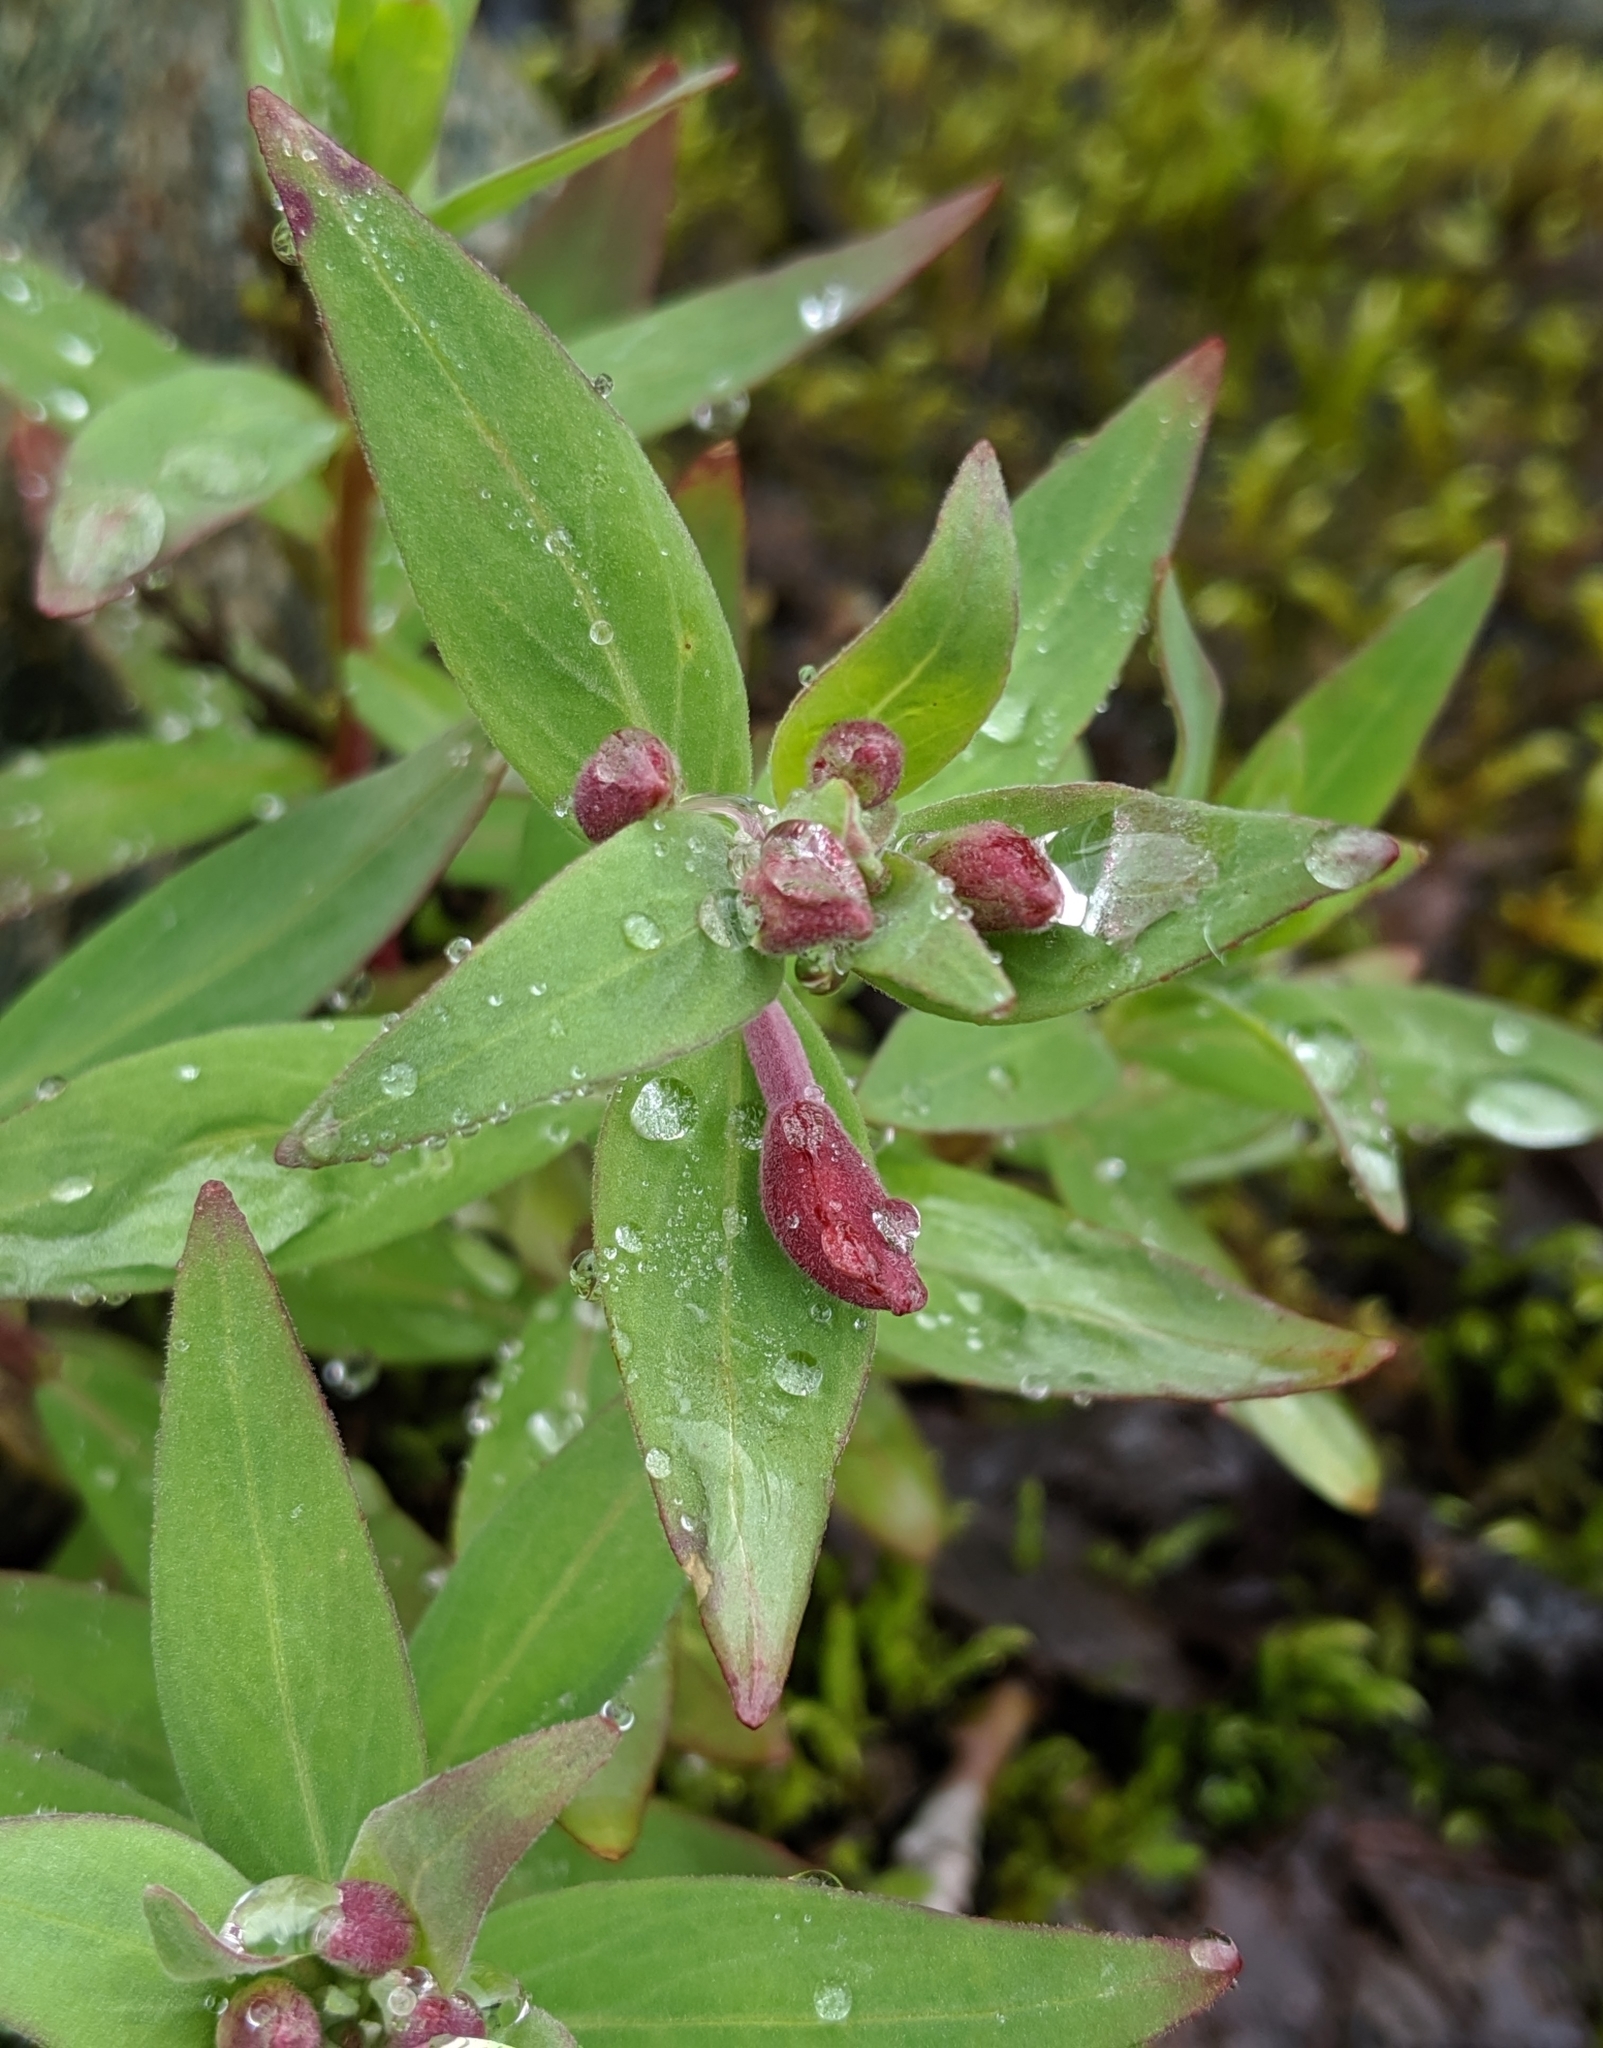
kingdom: Plantae
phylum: Tracheophyta
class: Magnoliopsida
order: Myrtales
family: Onagraceae
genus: Chamaenerion
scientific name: Chamaenerion latifolium
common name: Dwarf fireweed
